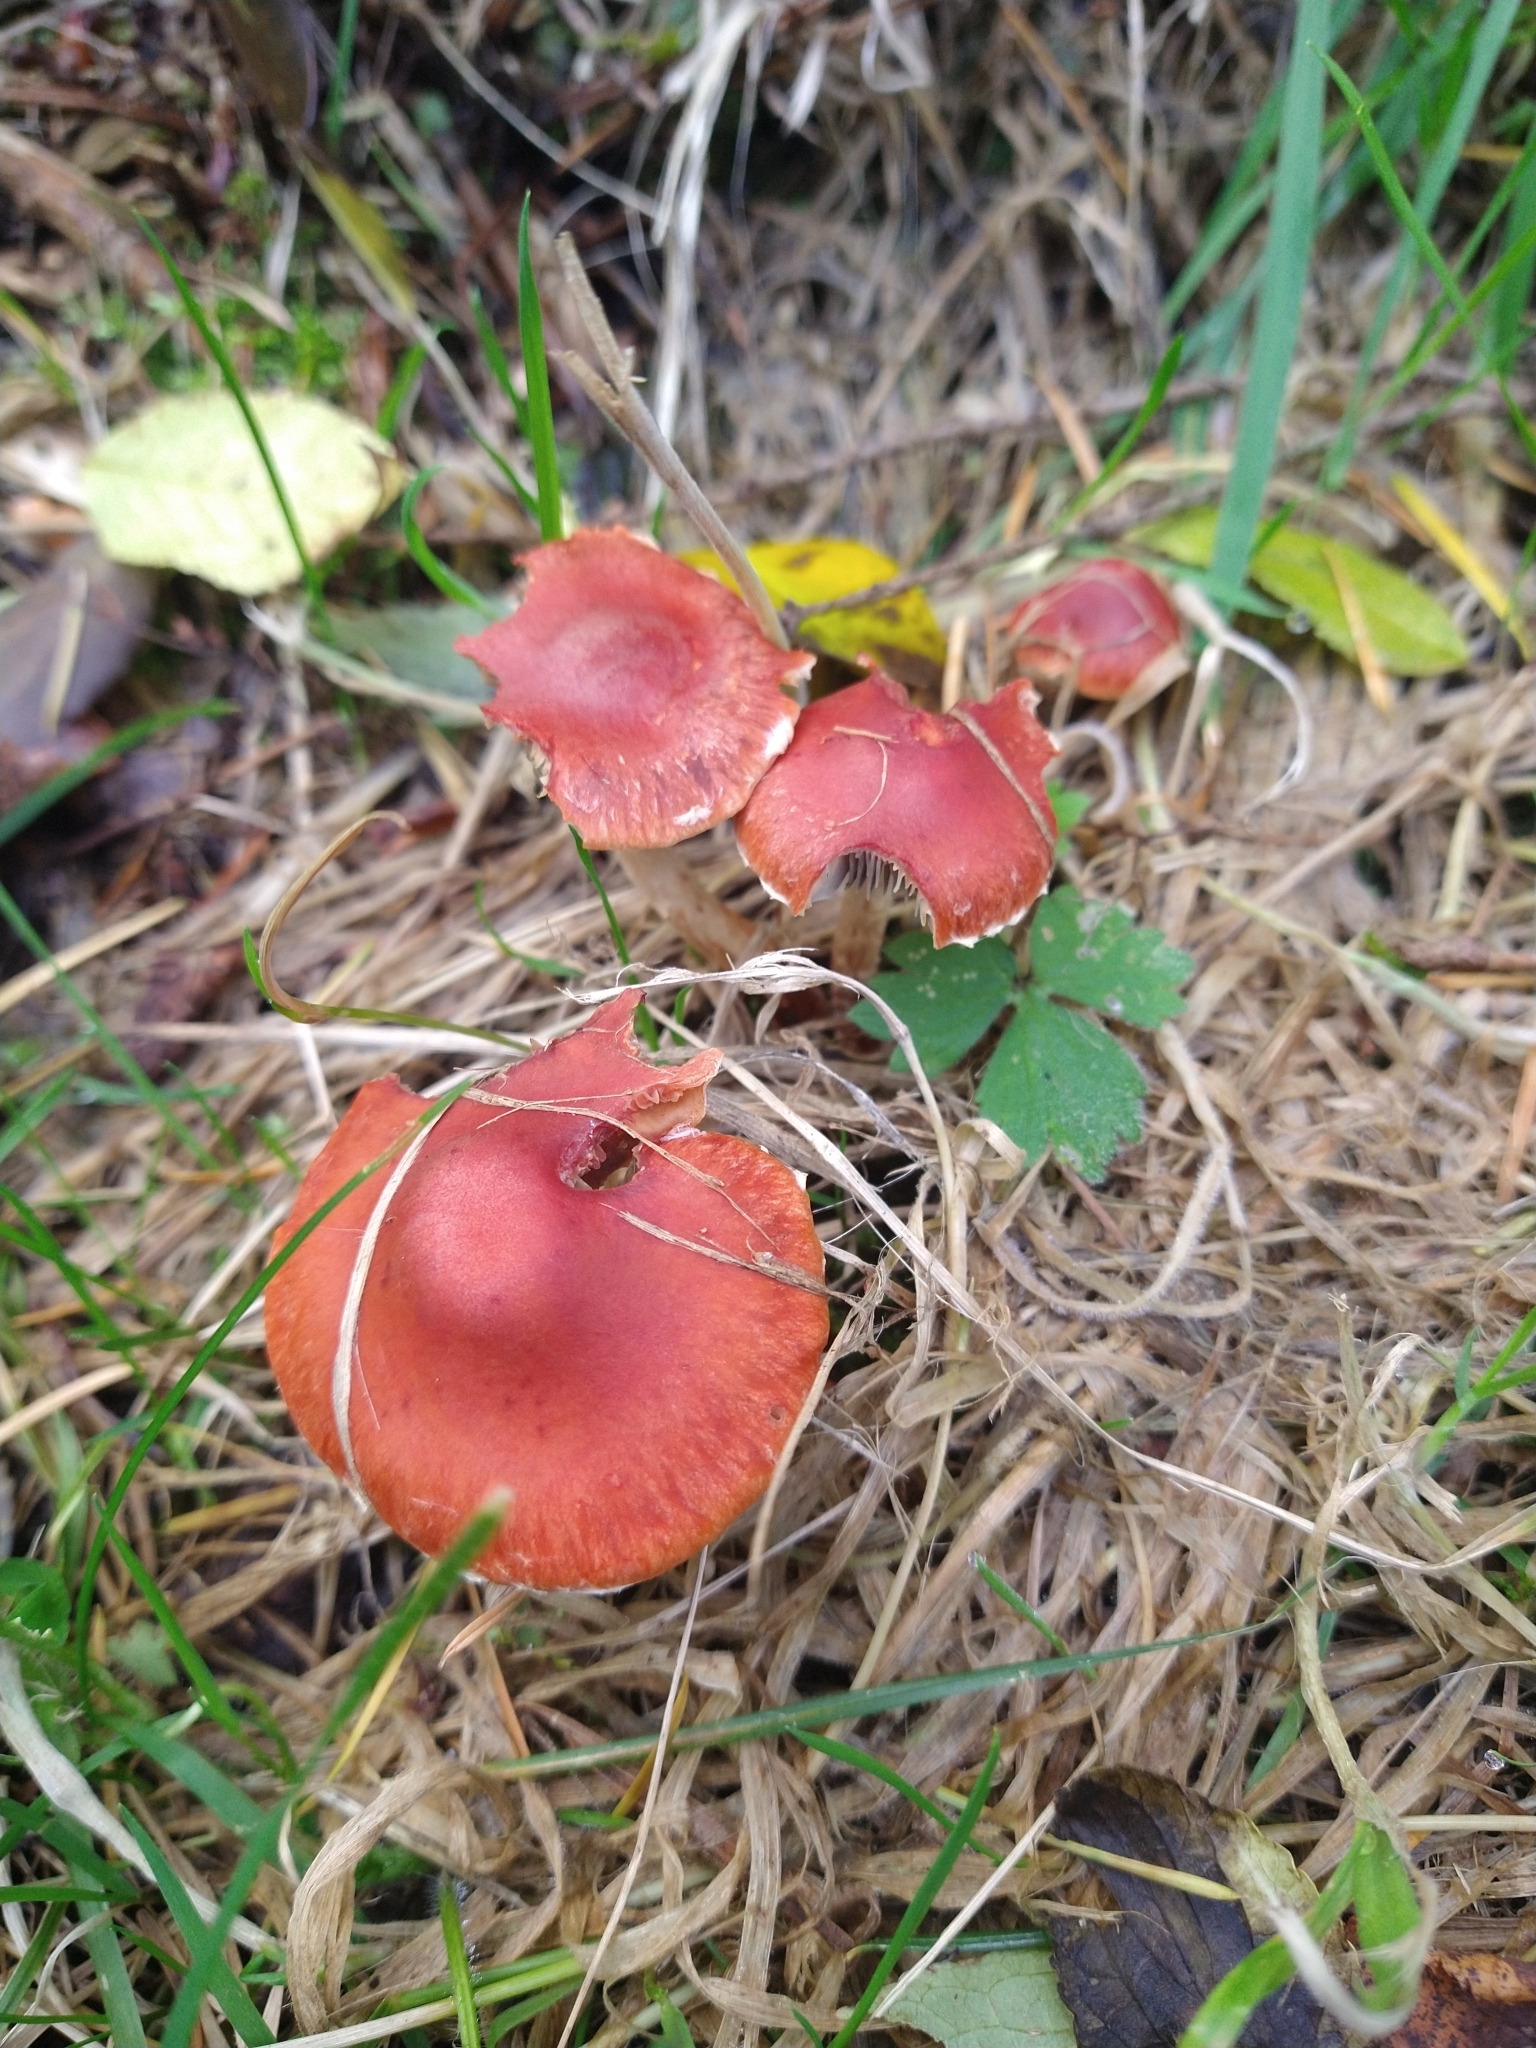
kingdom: Fungi
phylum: Basidiomycota
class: Agaricomycetes
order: Agaricales
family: Strophariaceae
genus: Leratiomyces
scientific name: Leratiomyces ceres
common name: Redlead roundhead
